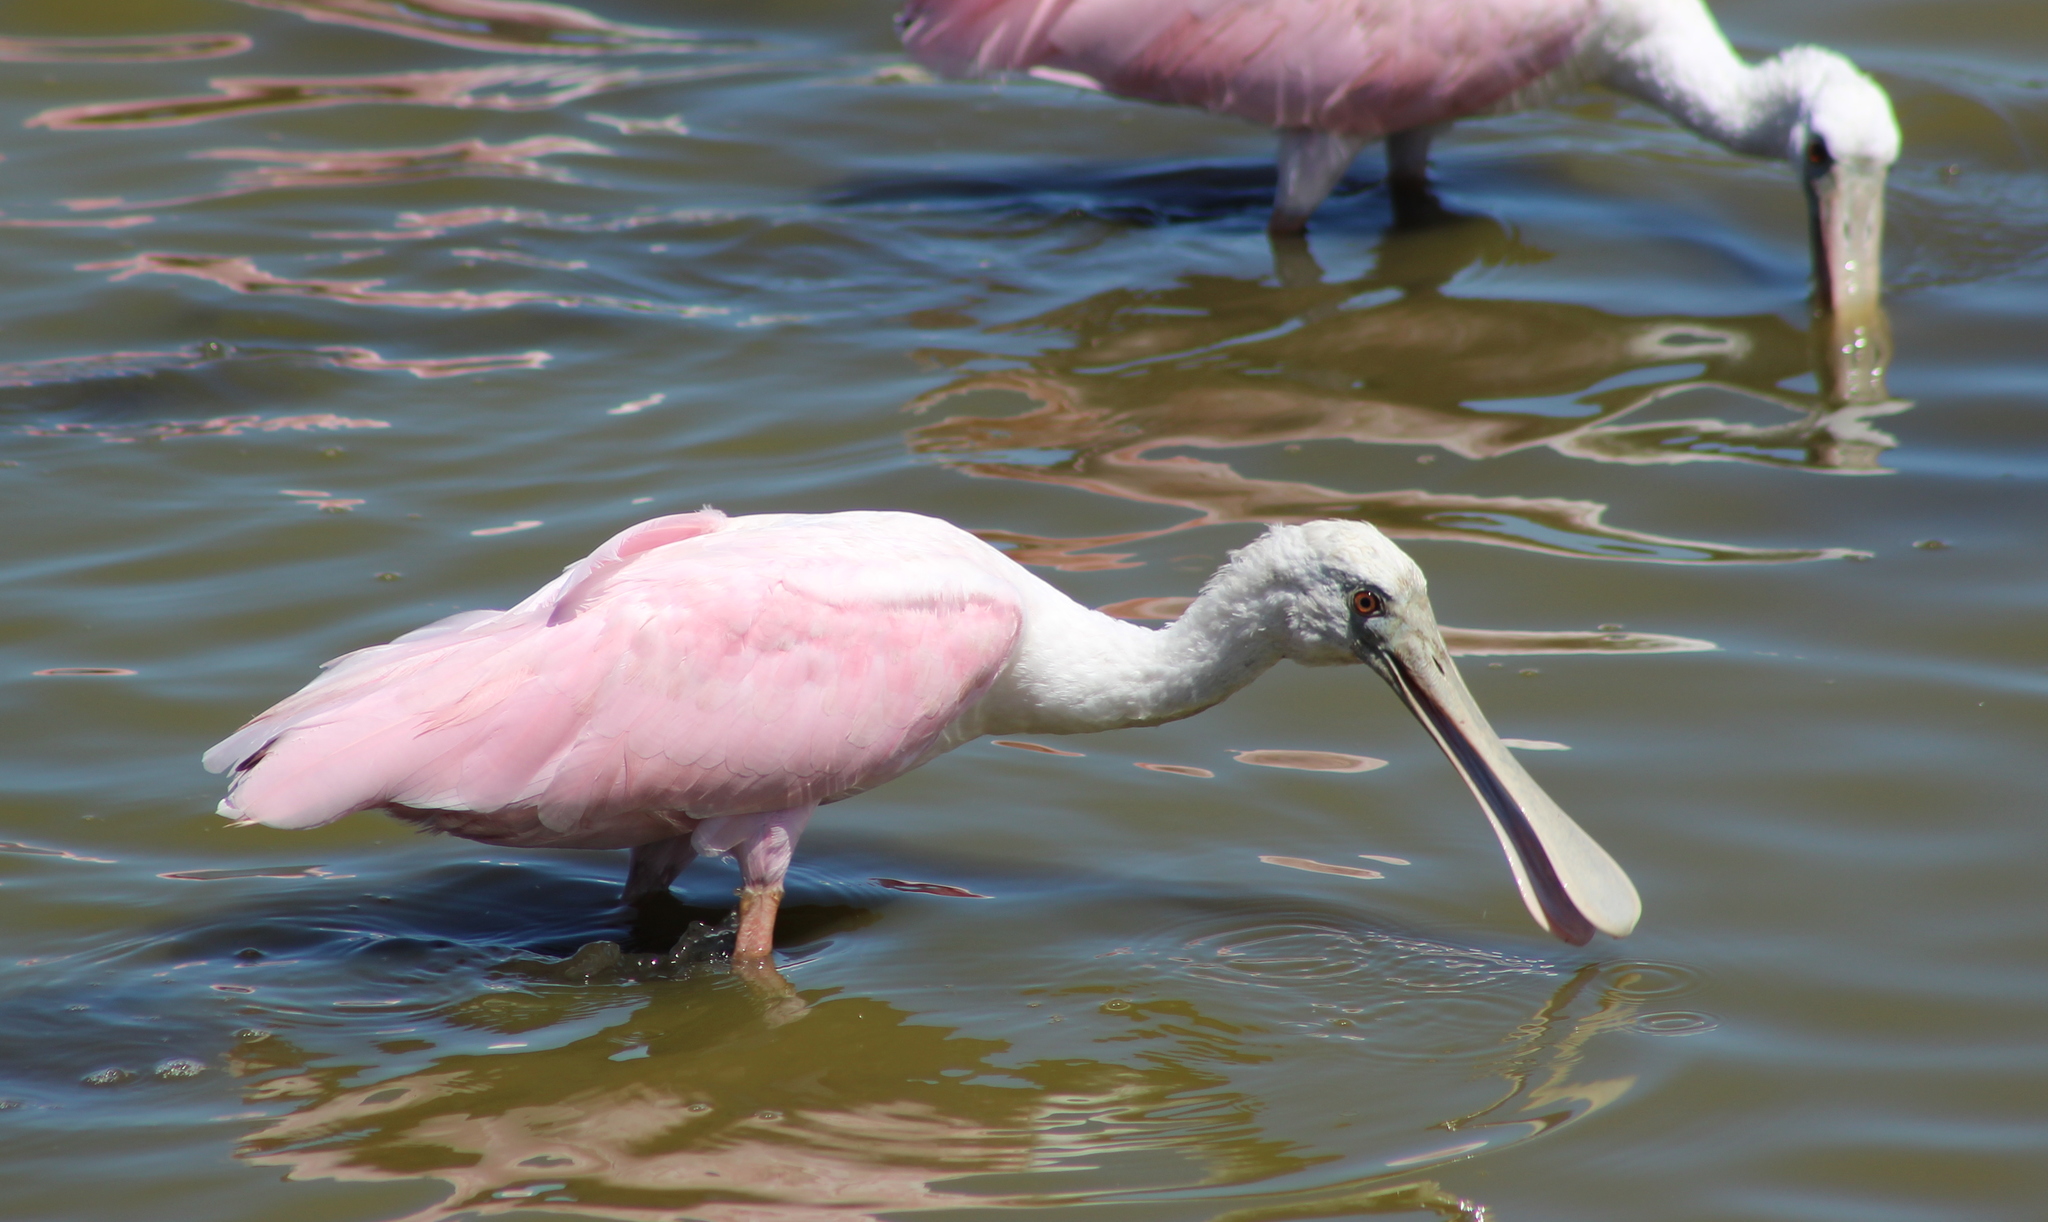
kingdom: Animalia
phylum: Chordata
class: Aves
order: Pelecaniformes
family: Threskiornithidae
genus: Platalea
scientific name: Platalea ajaja
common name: Roseate spoonbill
